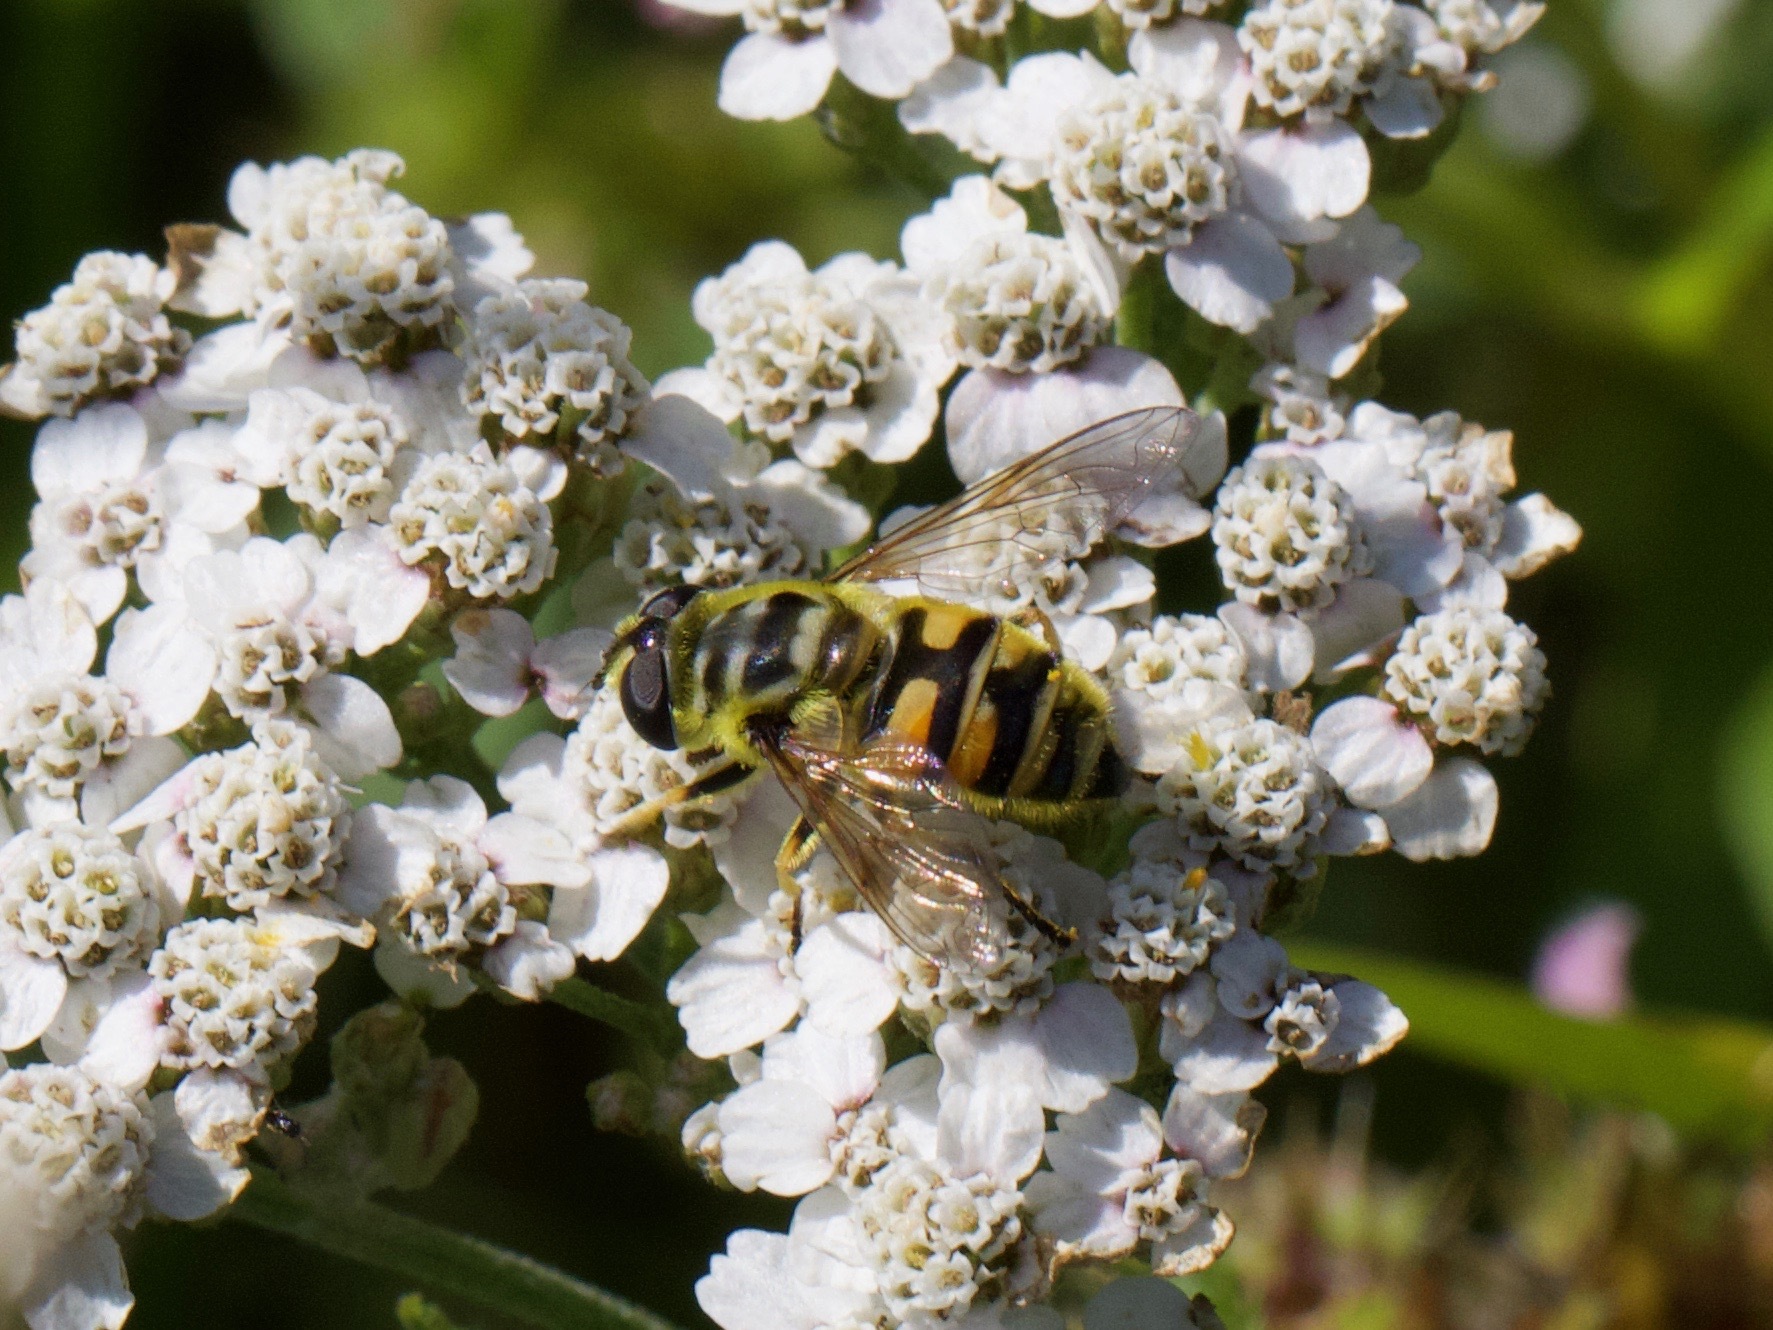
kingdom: Animalia
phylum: Arthropoda
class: Insecta
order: Diptera
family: Syrphidae
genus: Myathropa
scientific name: Myathropa florea
